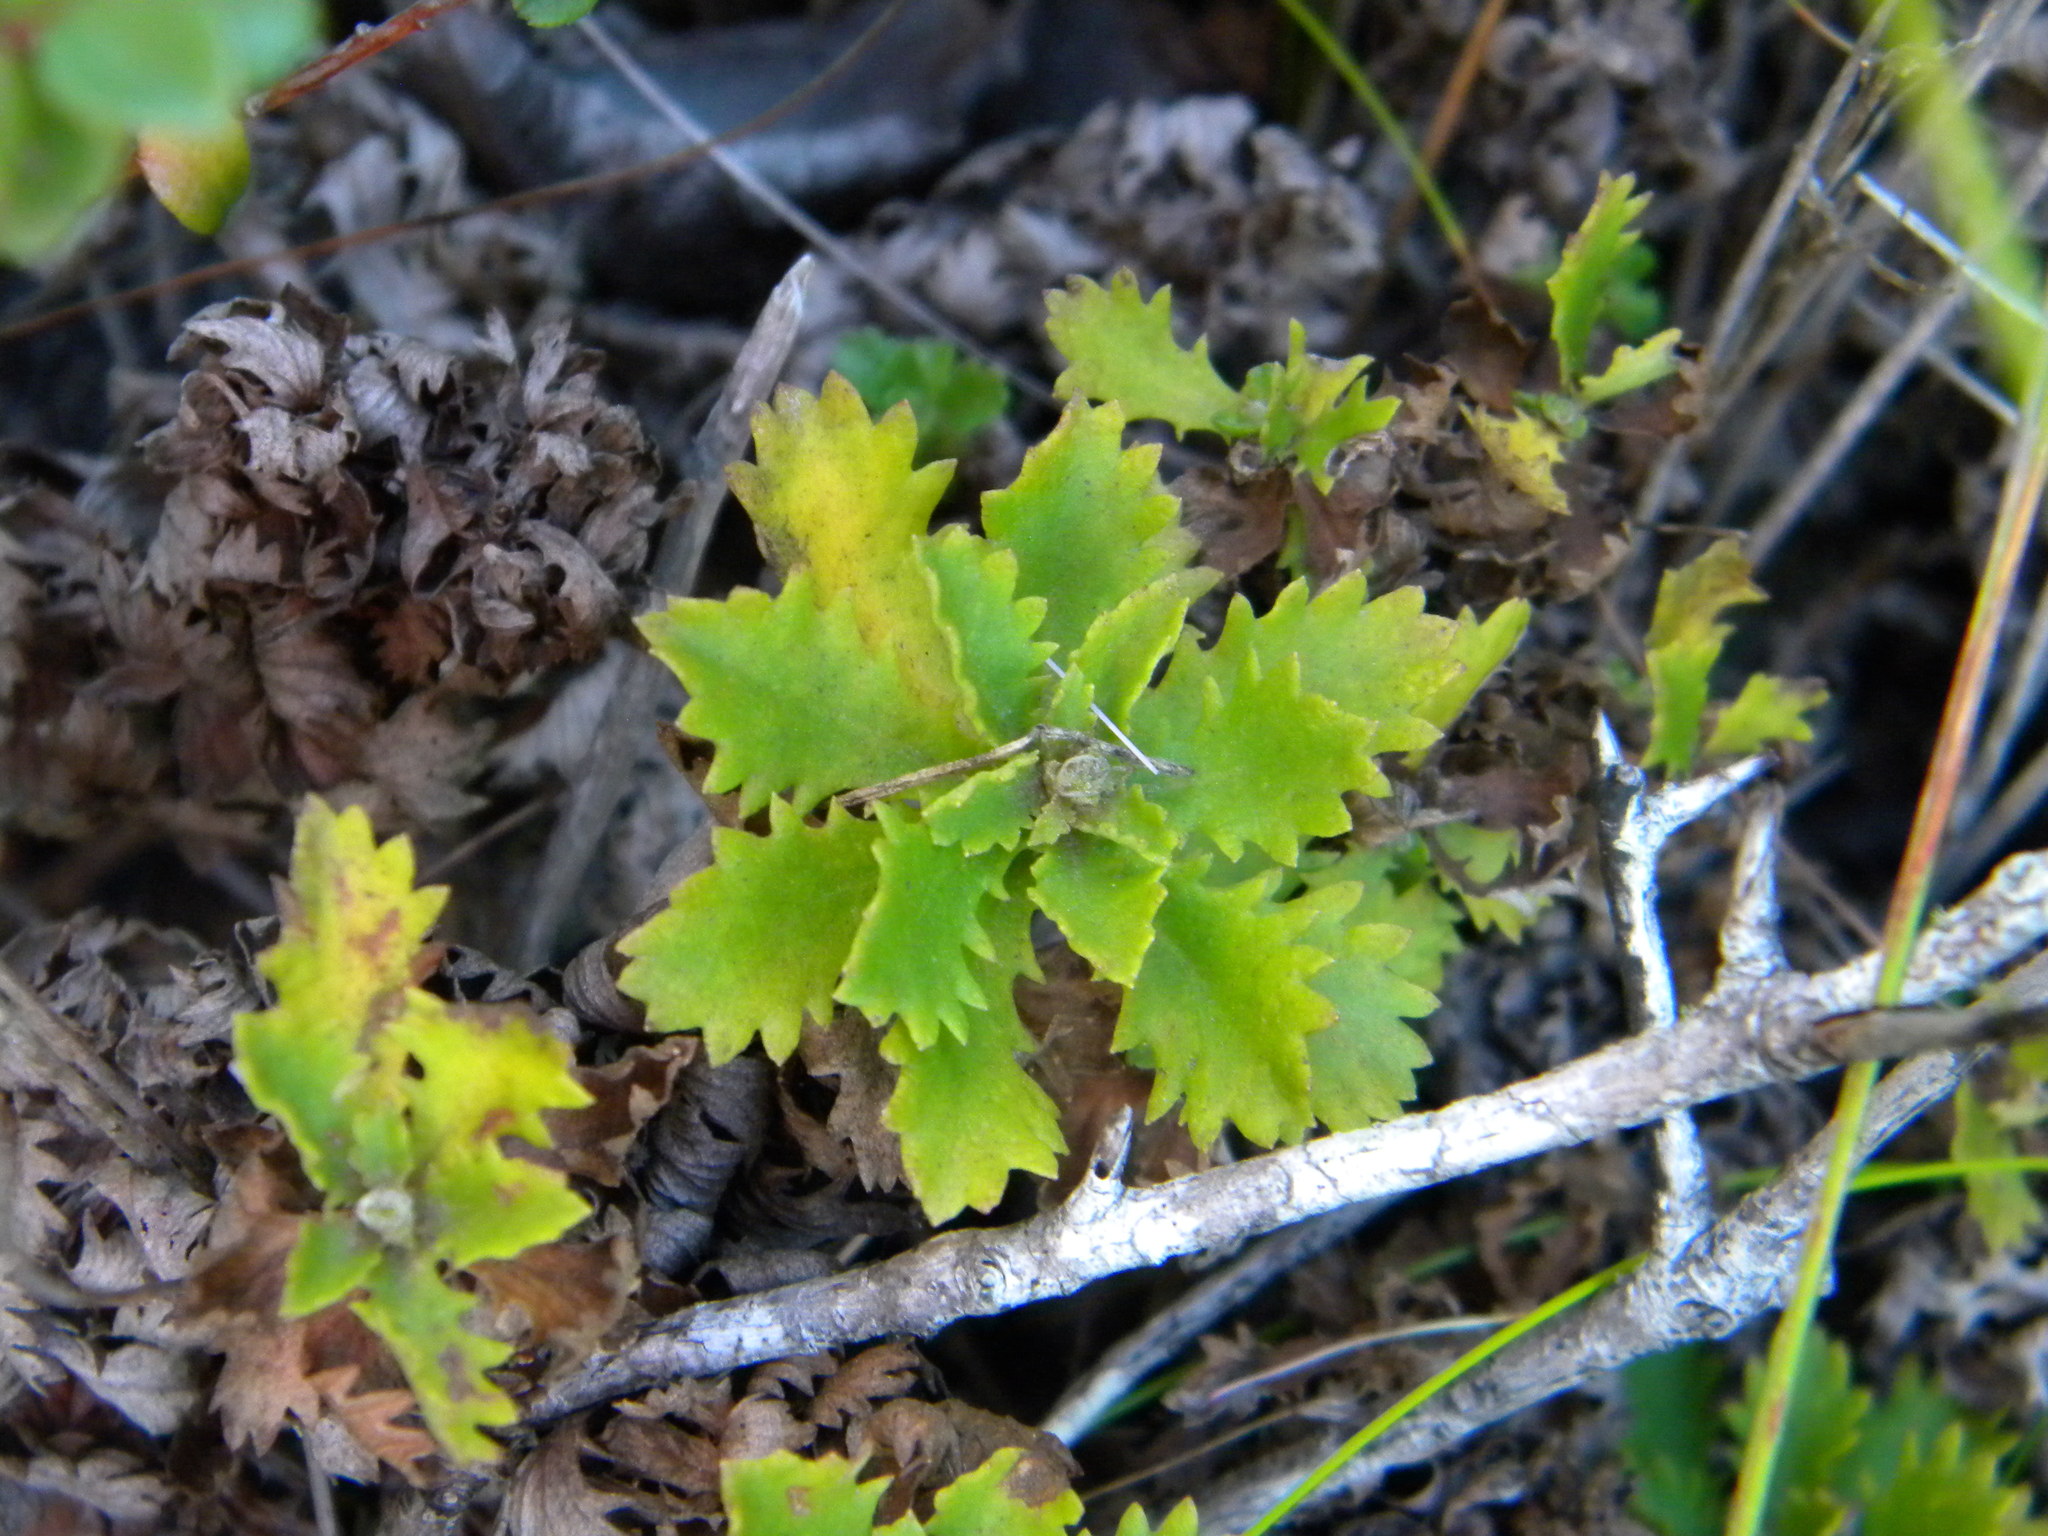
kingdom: Plantae
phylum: Tracheophyta
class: Magnoliopsida
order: Asterales
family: Asteraceae
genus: Osmitopsis
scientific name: Osmitopsis dentata
